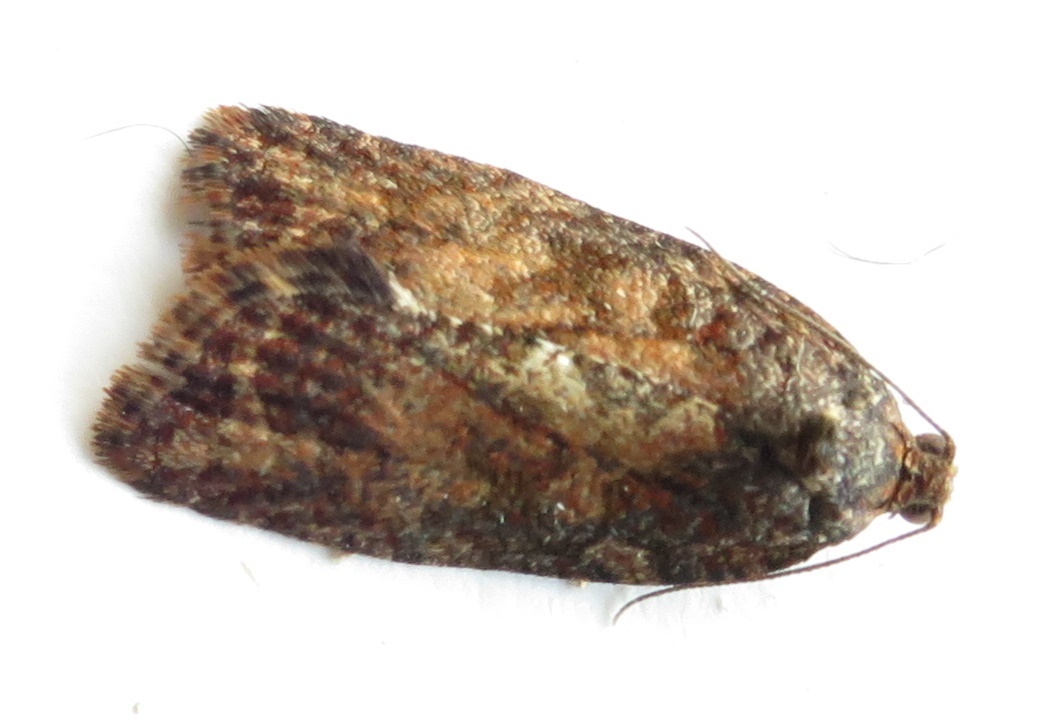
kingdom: Animalia
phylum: Arthropoda
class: Insecta
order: Lepidoptera
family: Tortricidae
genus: Capua
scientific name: Capua intractana
